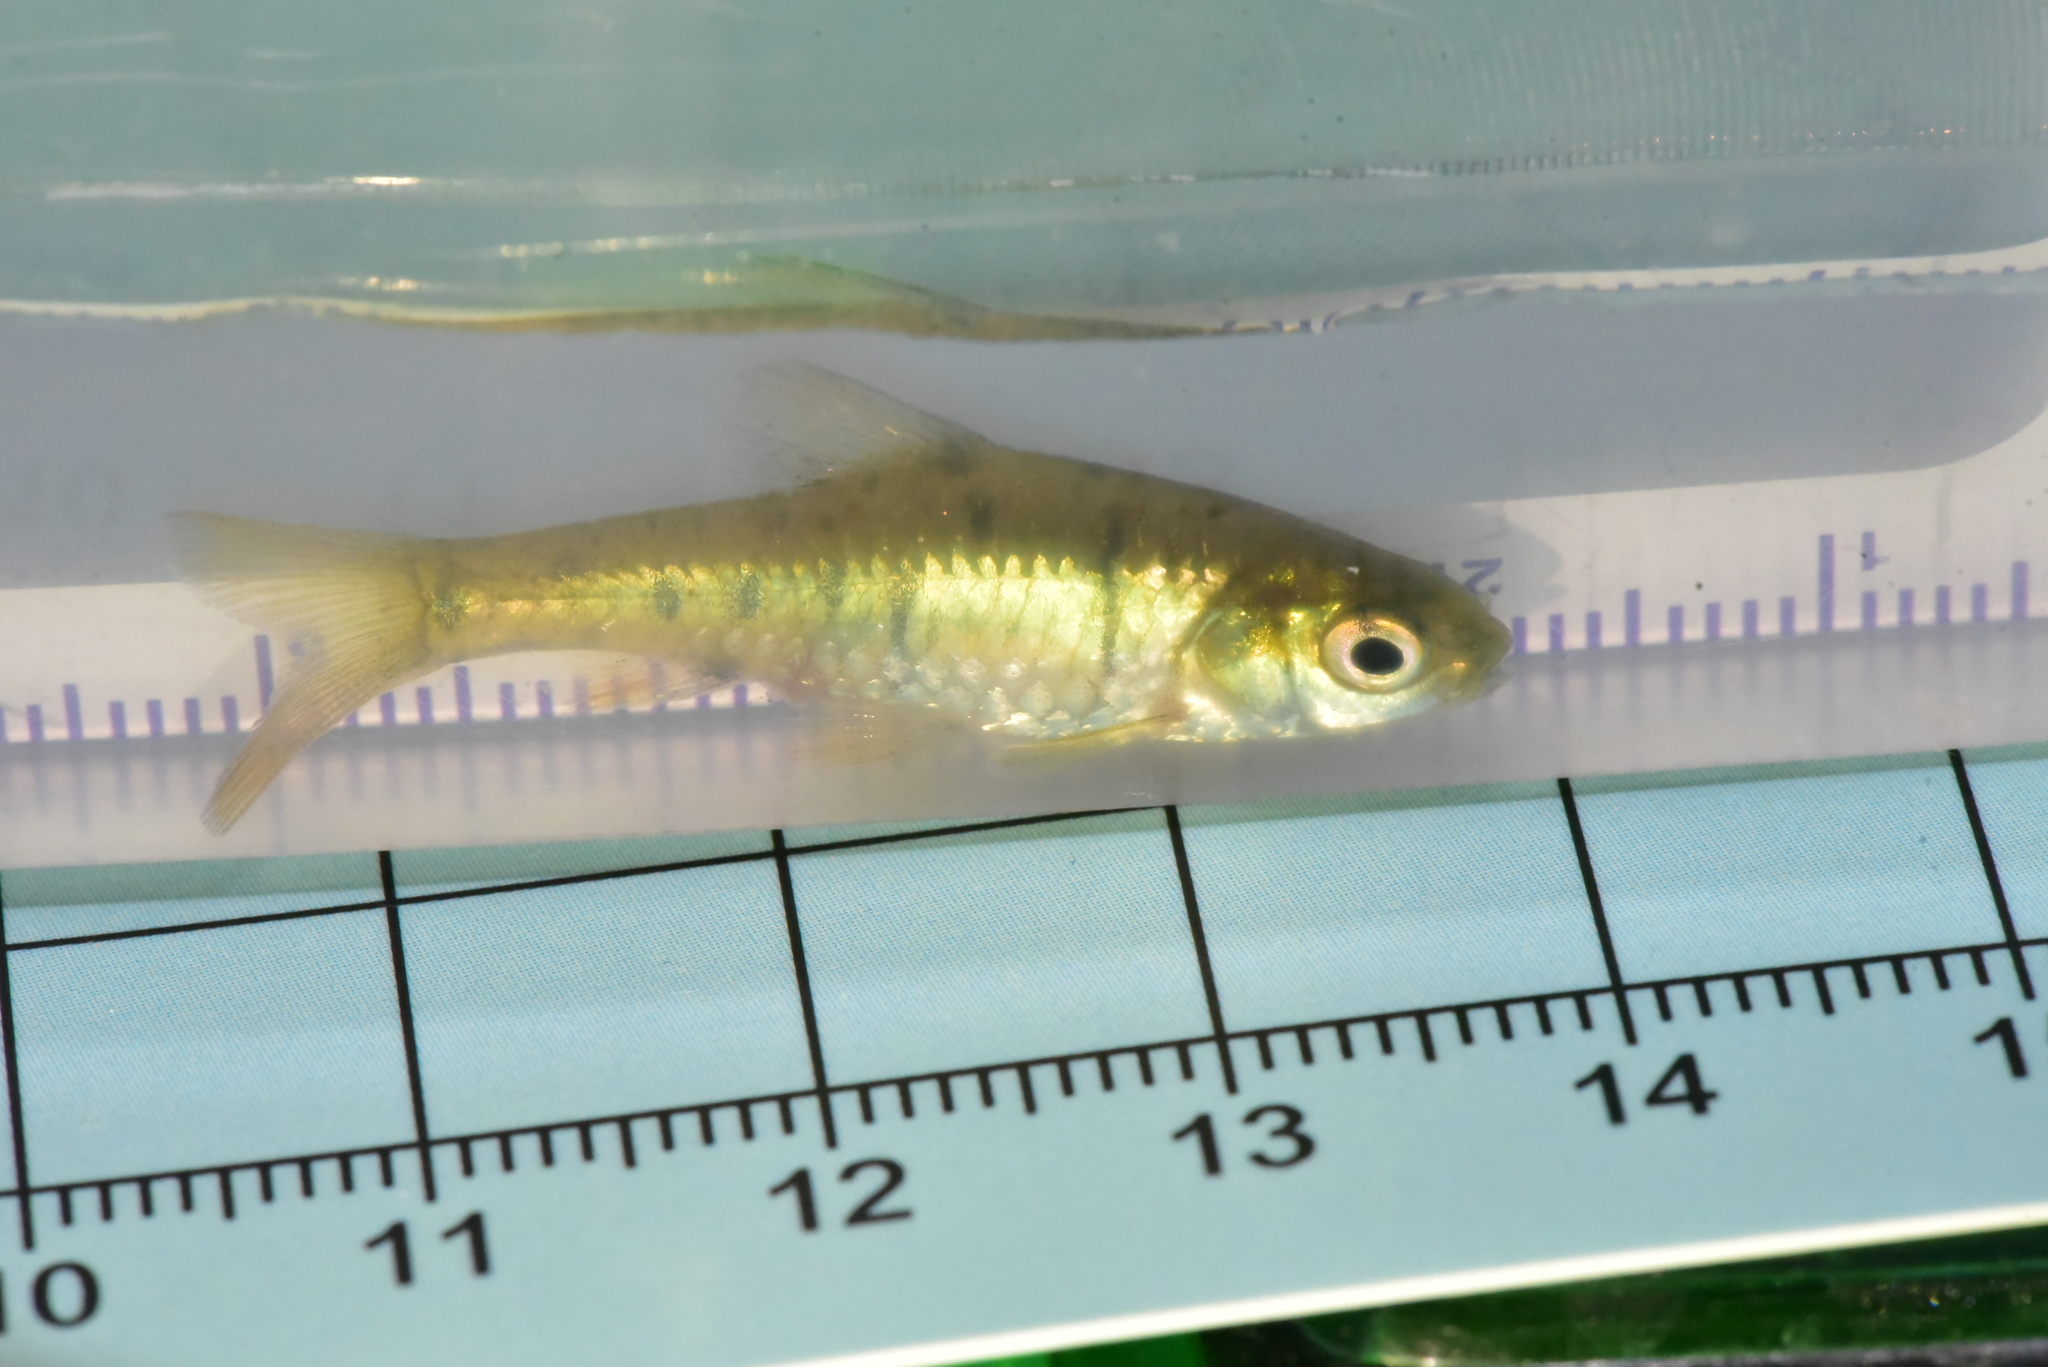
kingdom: Animalia
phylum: Chordata
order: Cypriniformes
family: Cyprinidae
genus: Barbodes
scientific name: Barbodes semifasciolatus
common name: Gold barb
